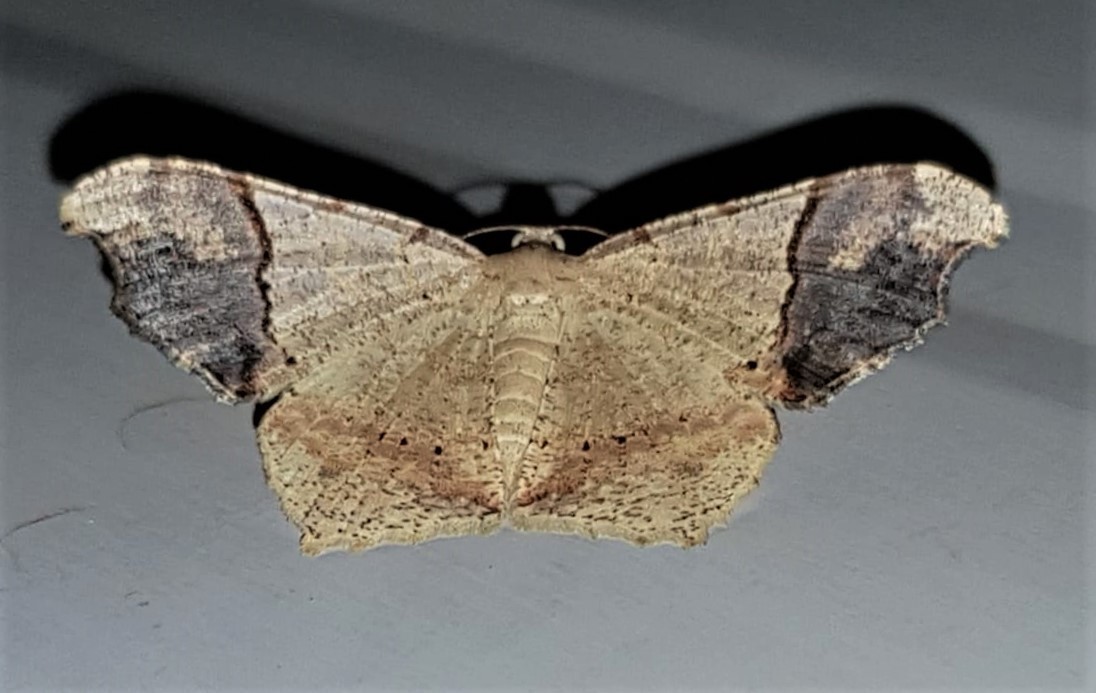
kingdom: Animalia
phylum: Arthropoda
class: Insecta
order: Lepidoptera
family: Geometridae
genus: Macaria
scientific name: Macaria gambarina
